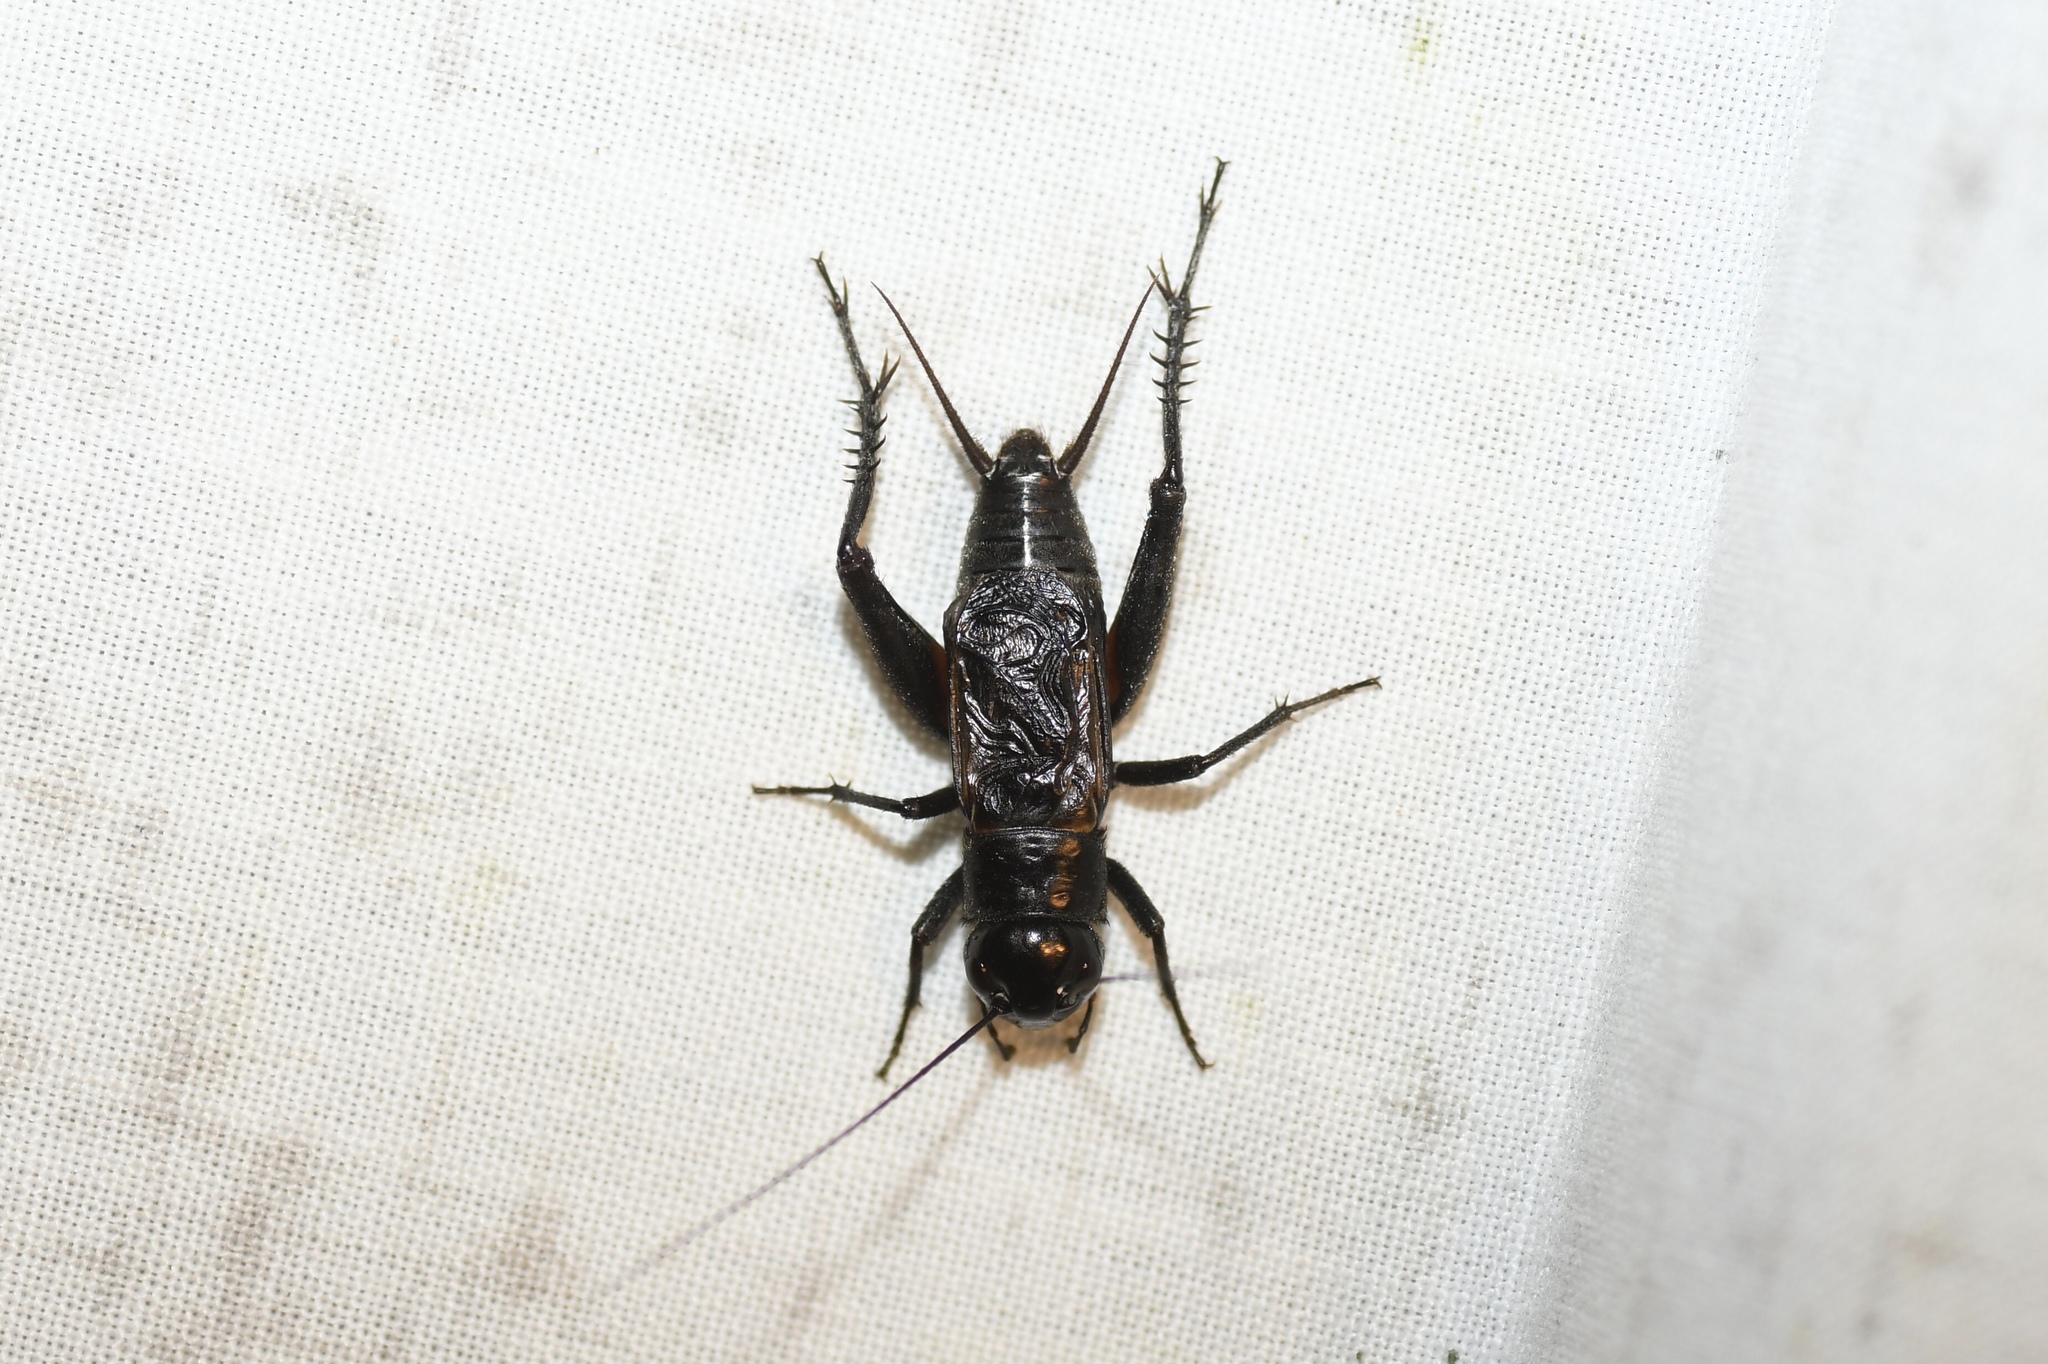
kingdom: Animalia
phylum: Arthropoda
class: Insecta
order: Orthoptera
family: Gryllidae
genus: Gryllus
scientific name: Gryllus pennsylvanicus
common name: Fall field cricket
